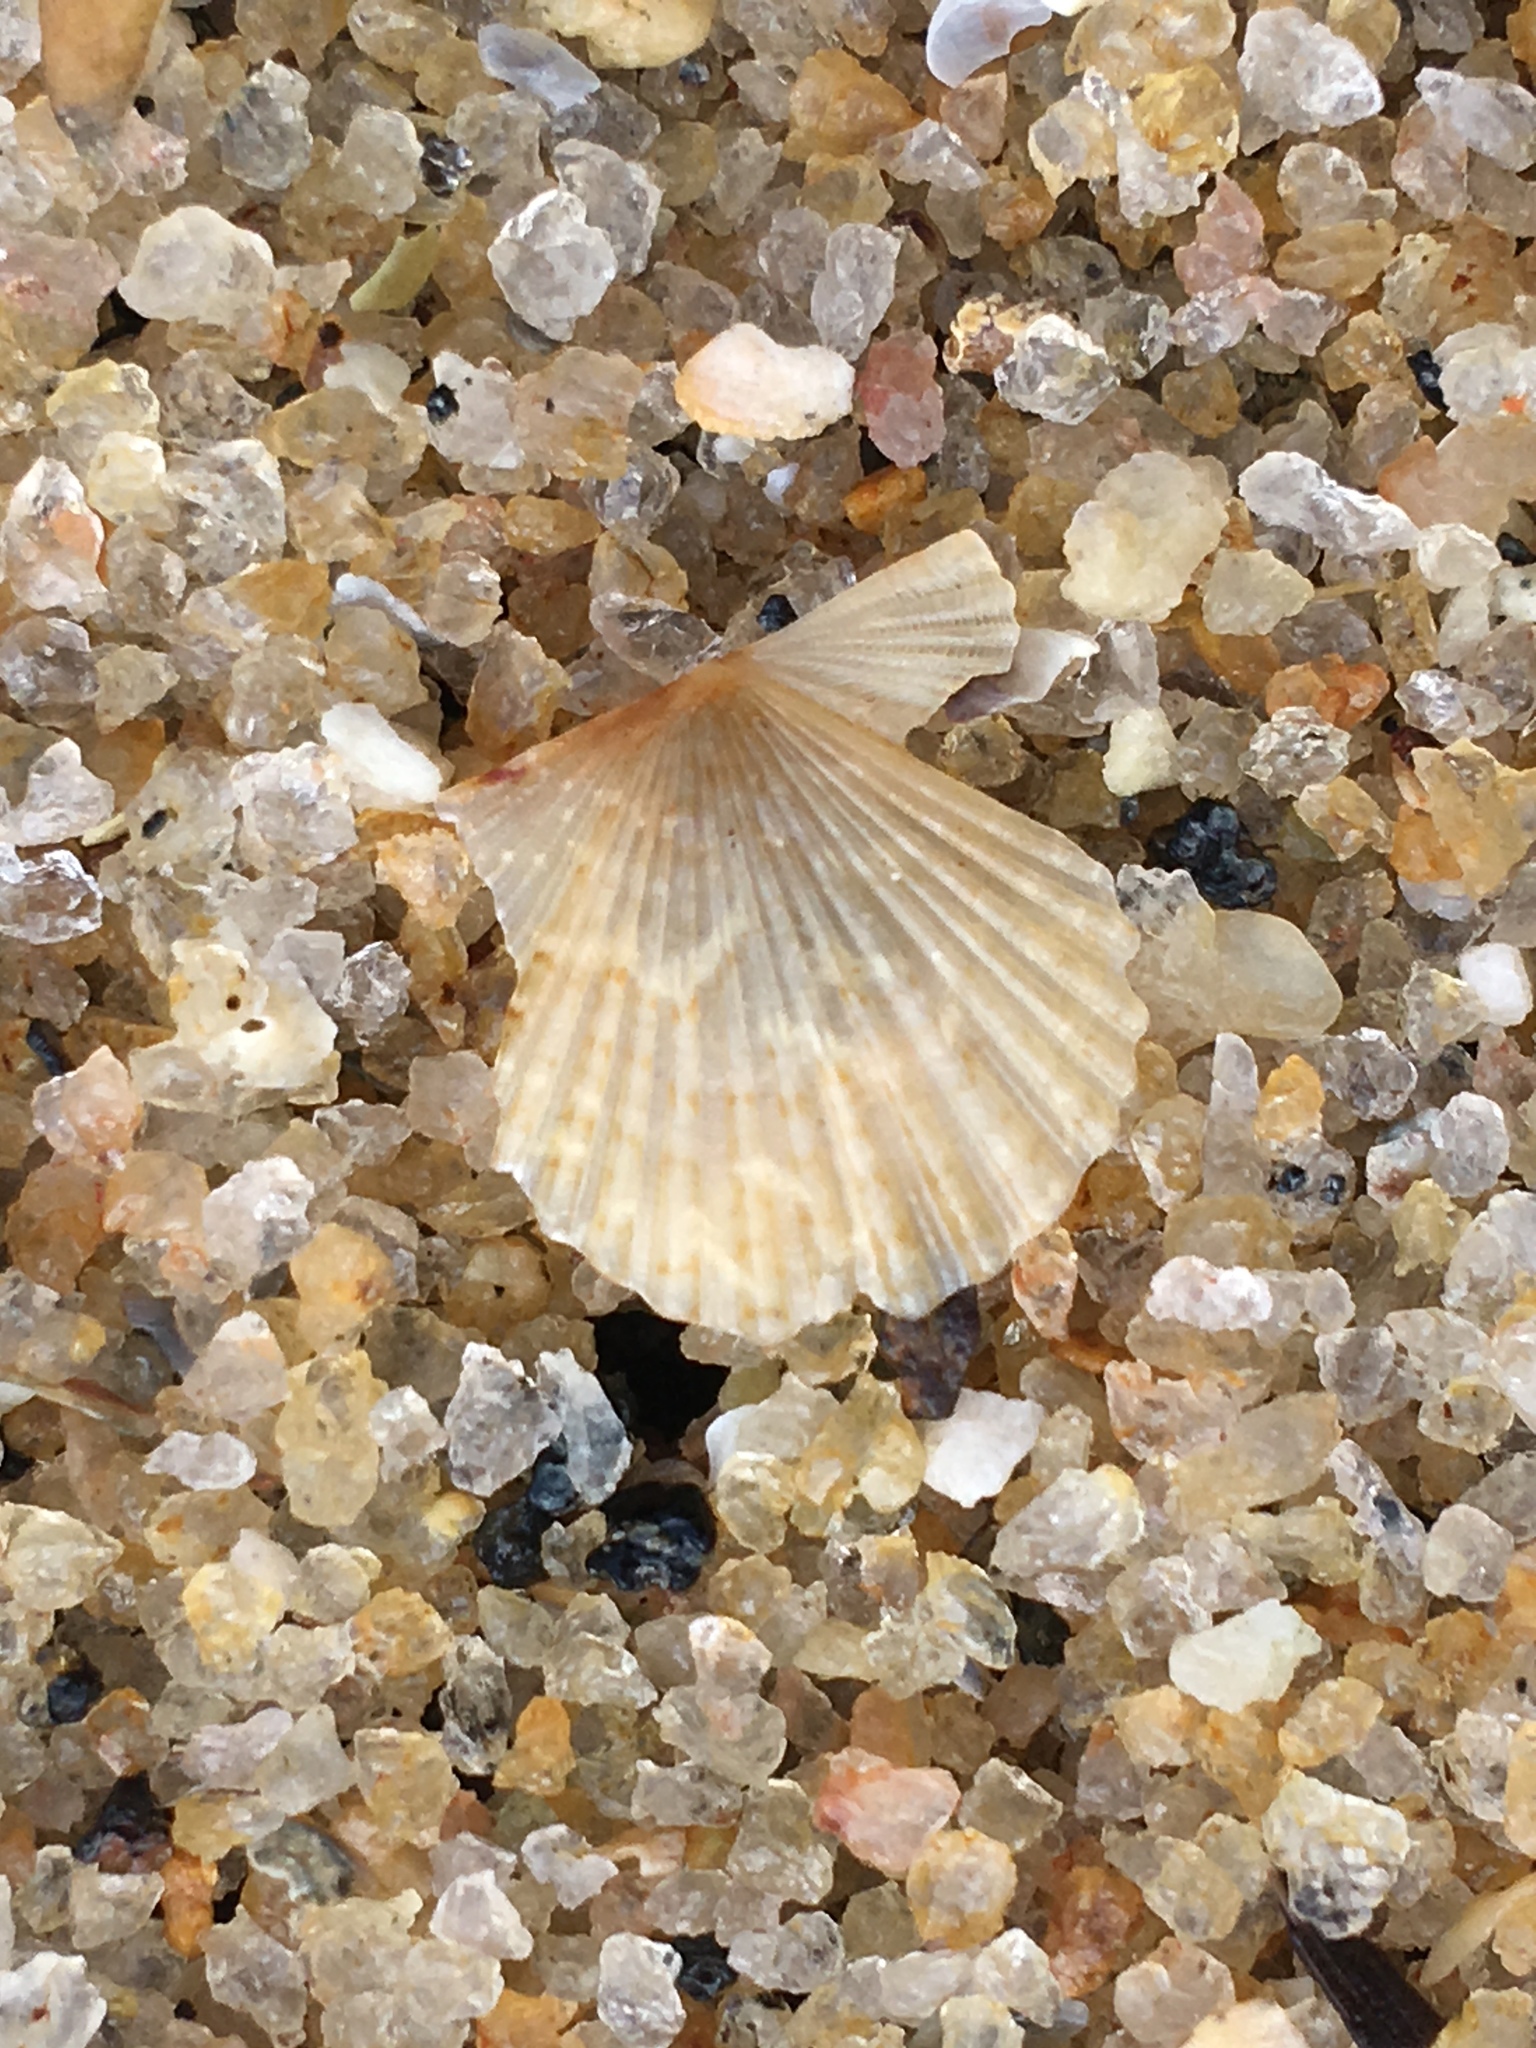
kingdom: Animalia
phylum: Mollusca
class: Bivalvia
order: Pectinida
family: Pectinidae
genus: Leptopecten
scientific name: Leptopecten bavayi
